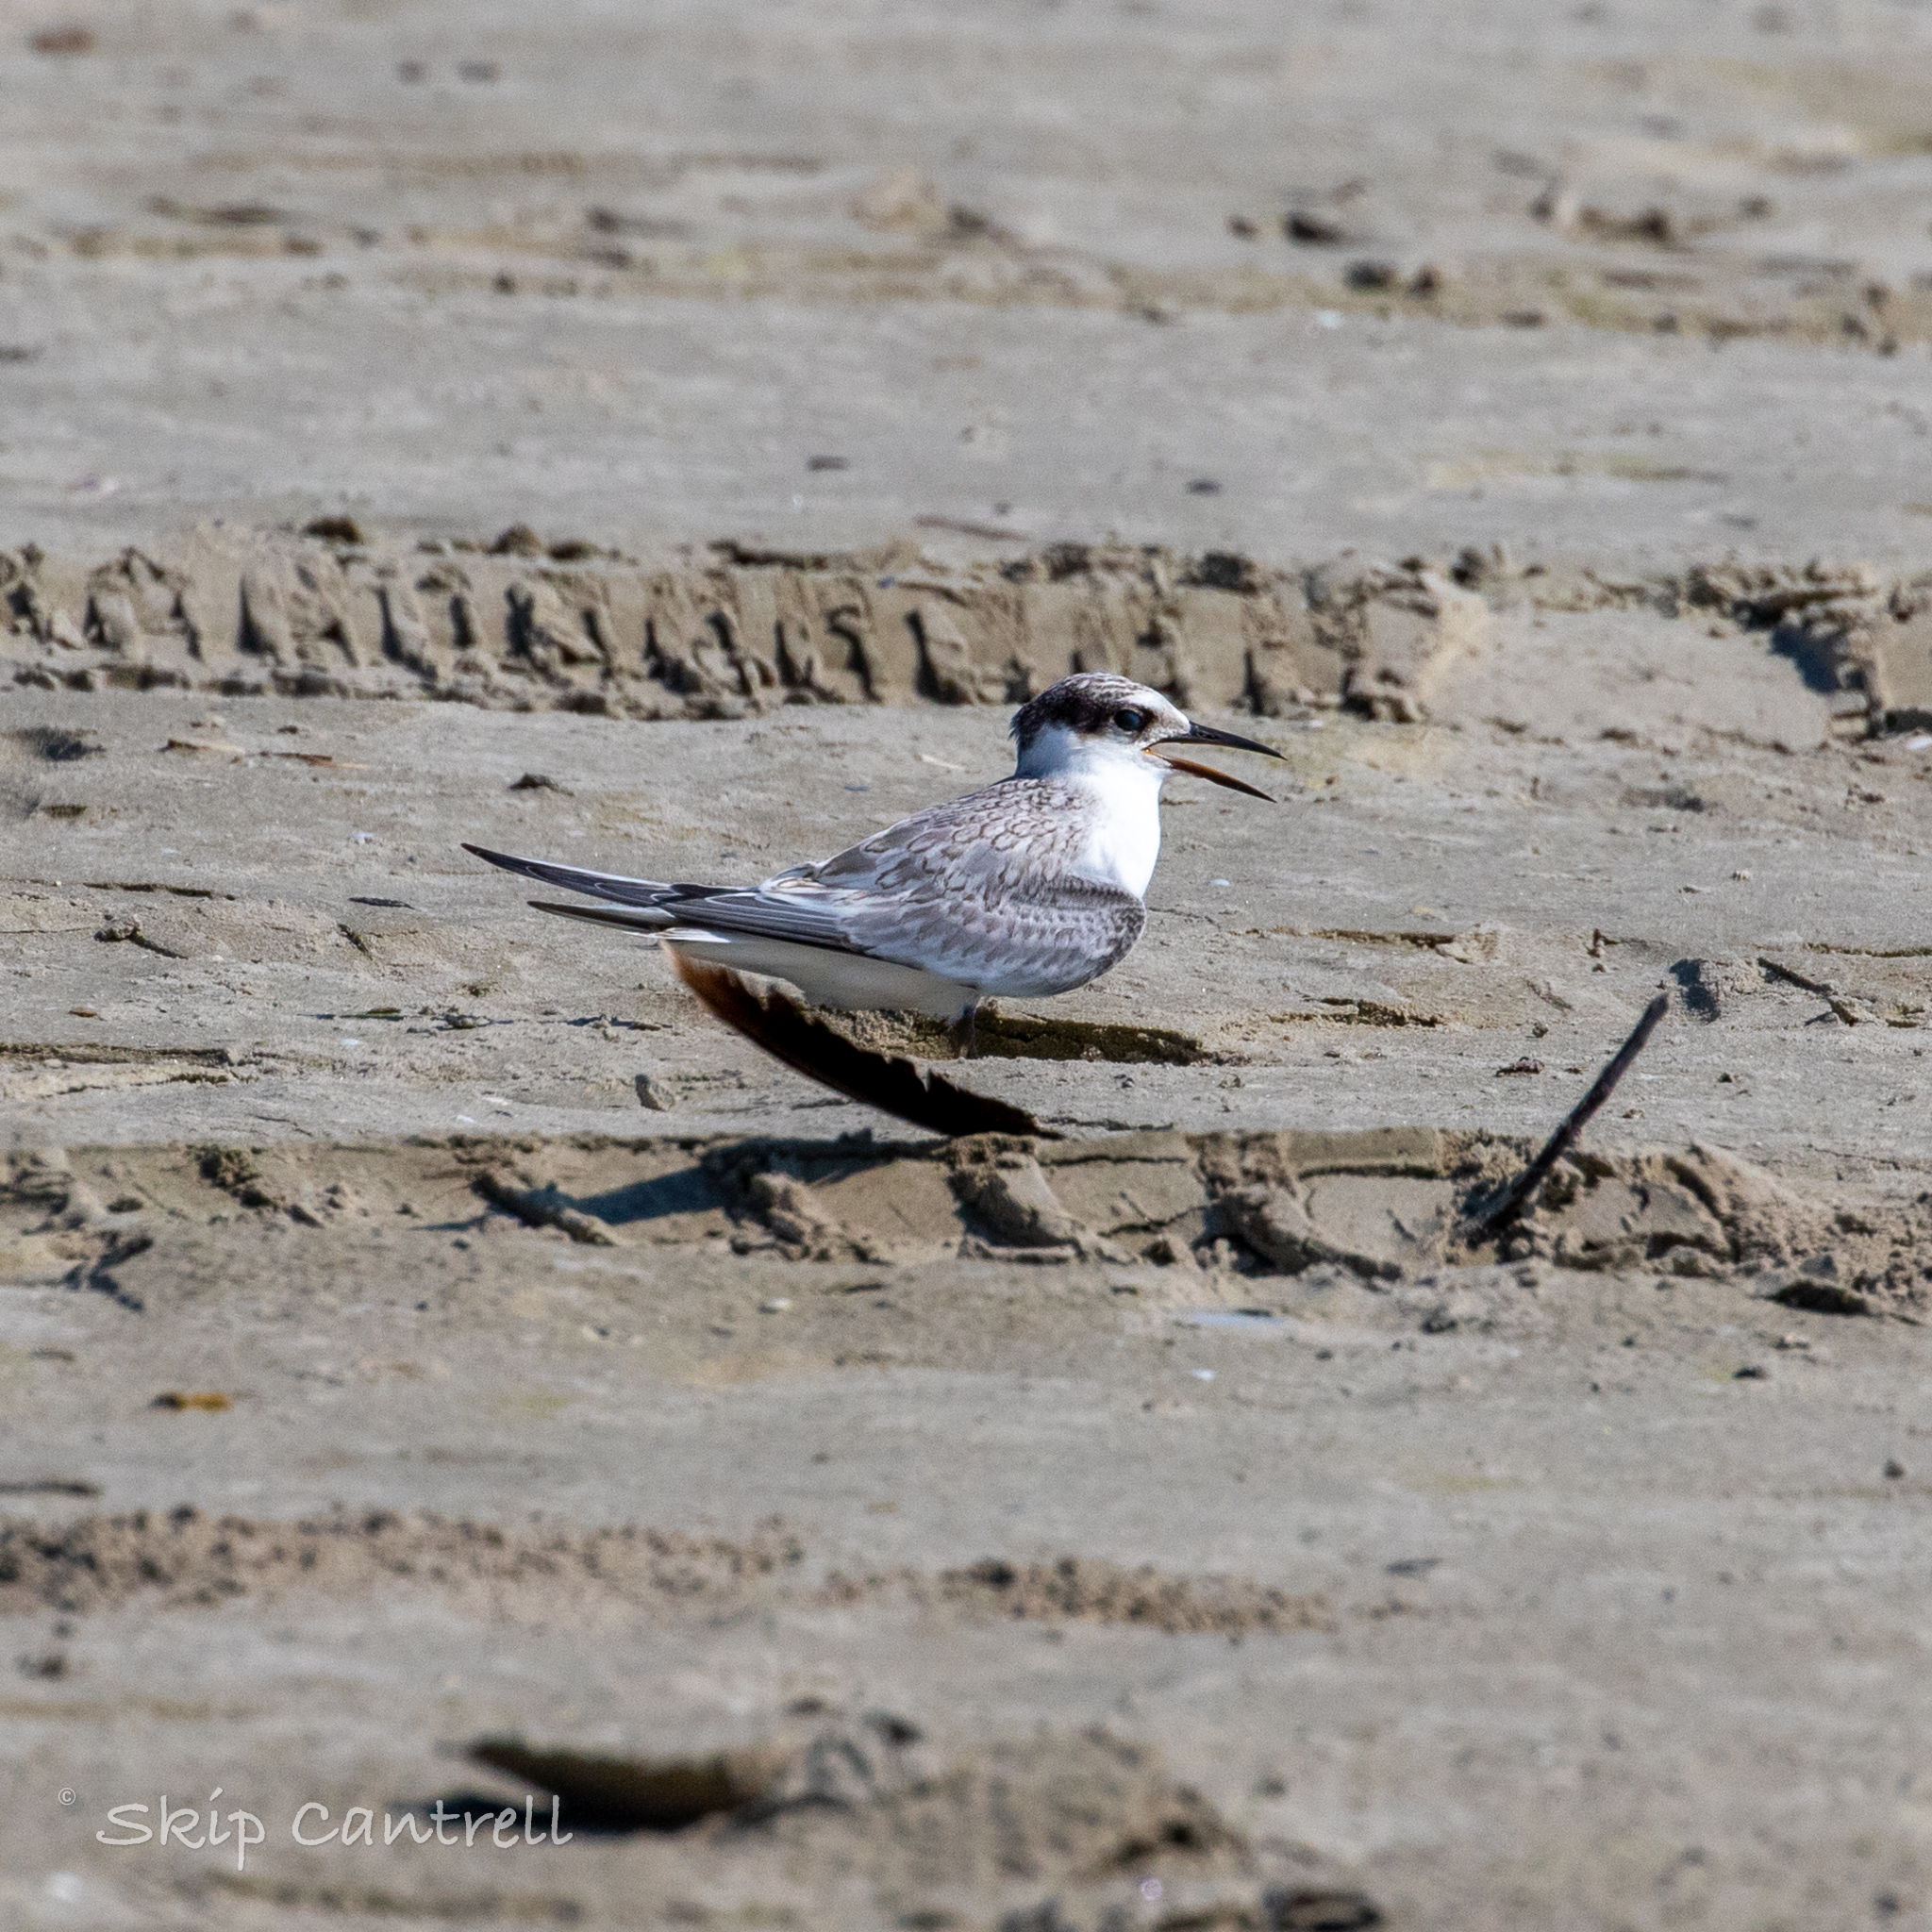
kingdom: Animalia
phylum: Chordata
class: Aves
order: Charadriiformes
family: Laridae
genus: Sternula
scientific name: Sternula antillarum
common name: Least tern
